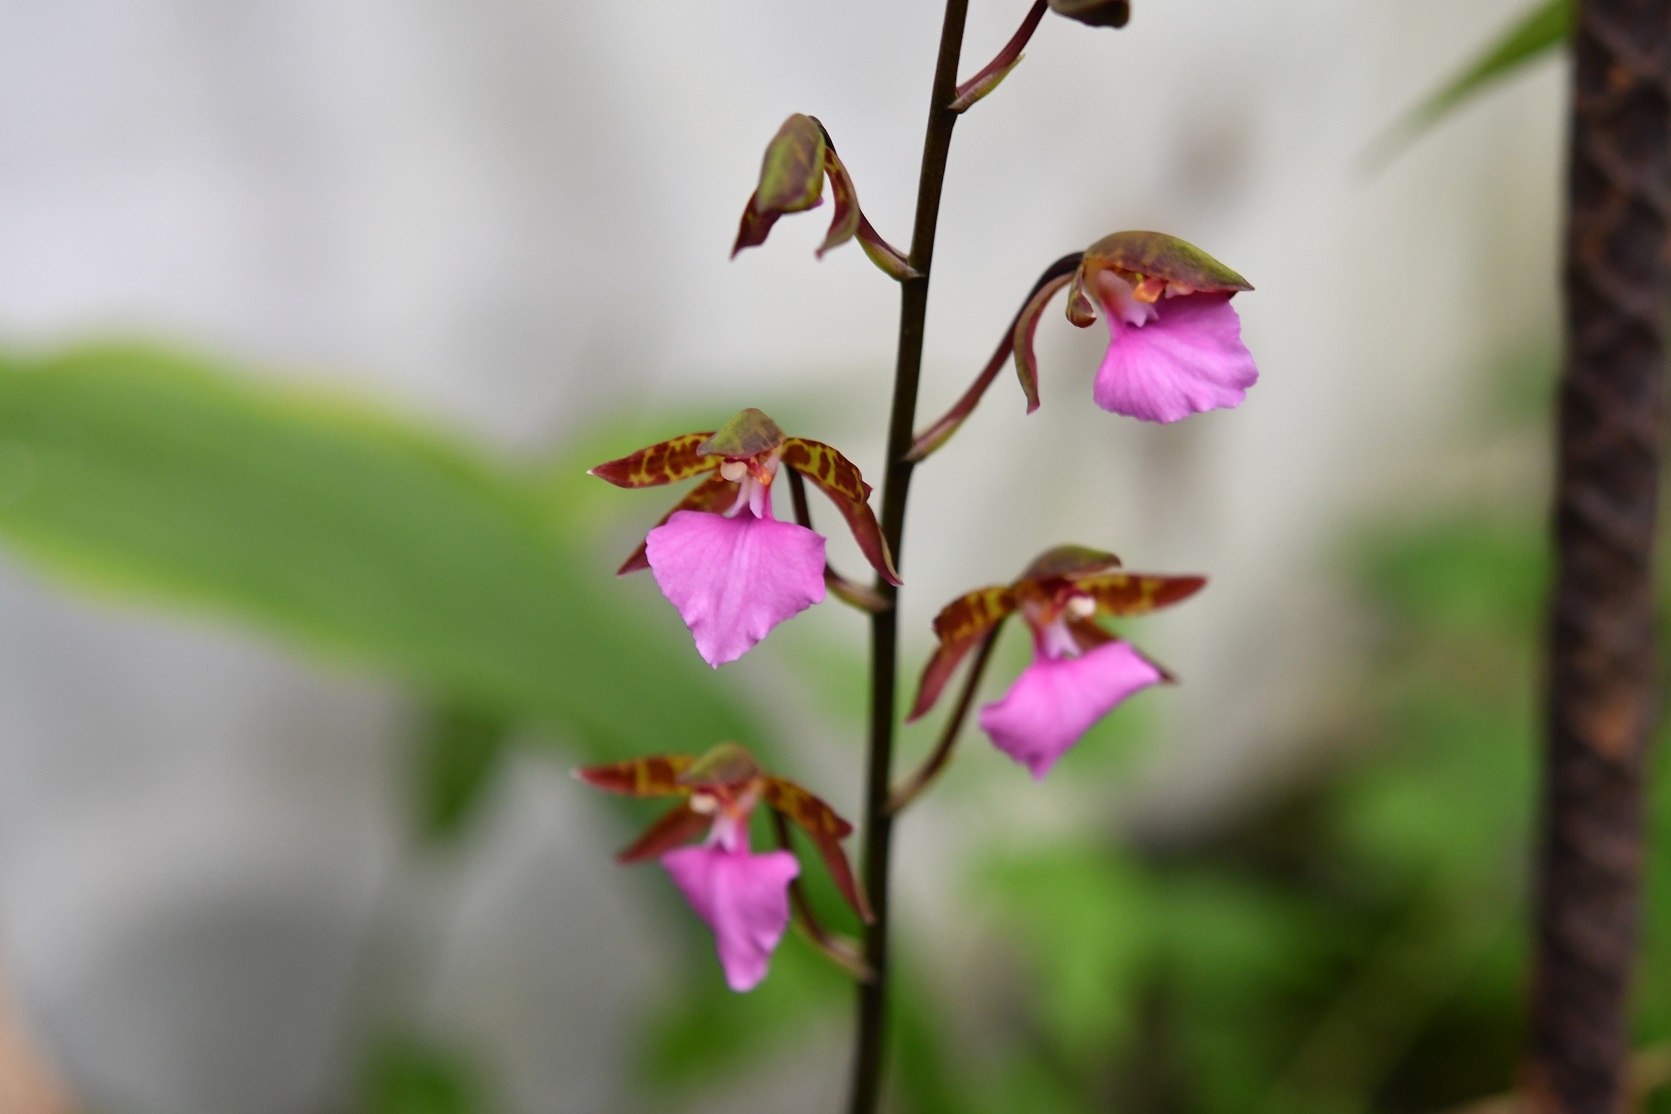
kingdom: Plantae
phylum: Tracheophyta
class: Liliopsida
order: Asparagales
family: Orchidaceae
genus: Rhynchostele
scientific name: Rhynchostele bictoniensis
